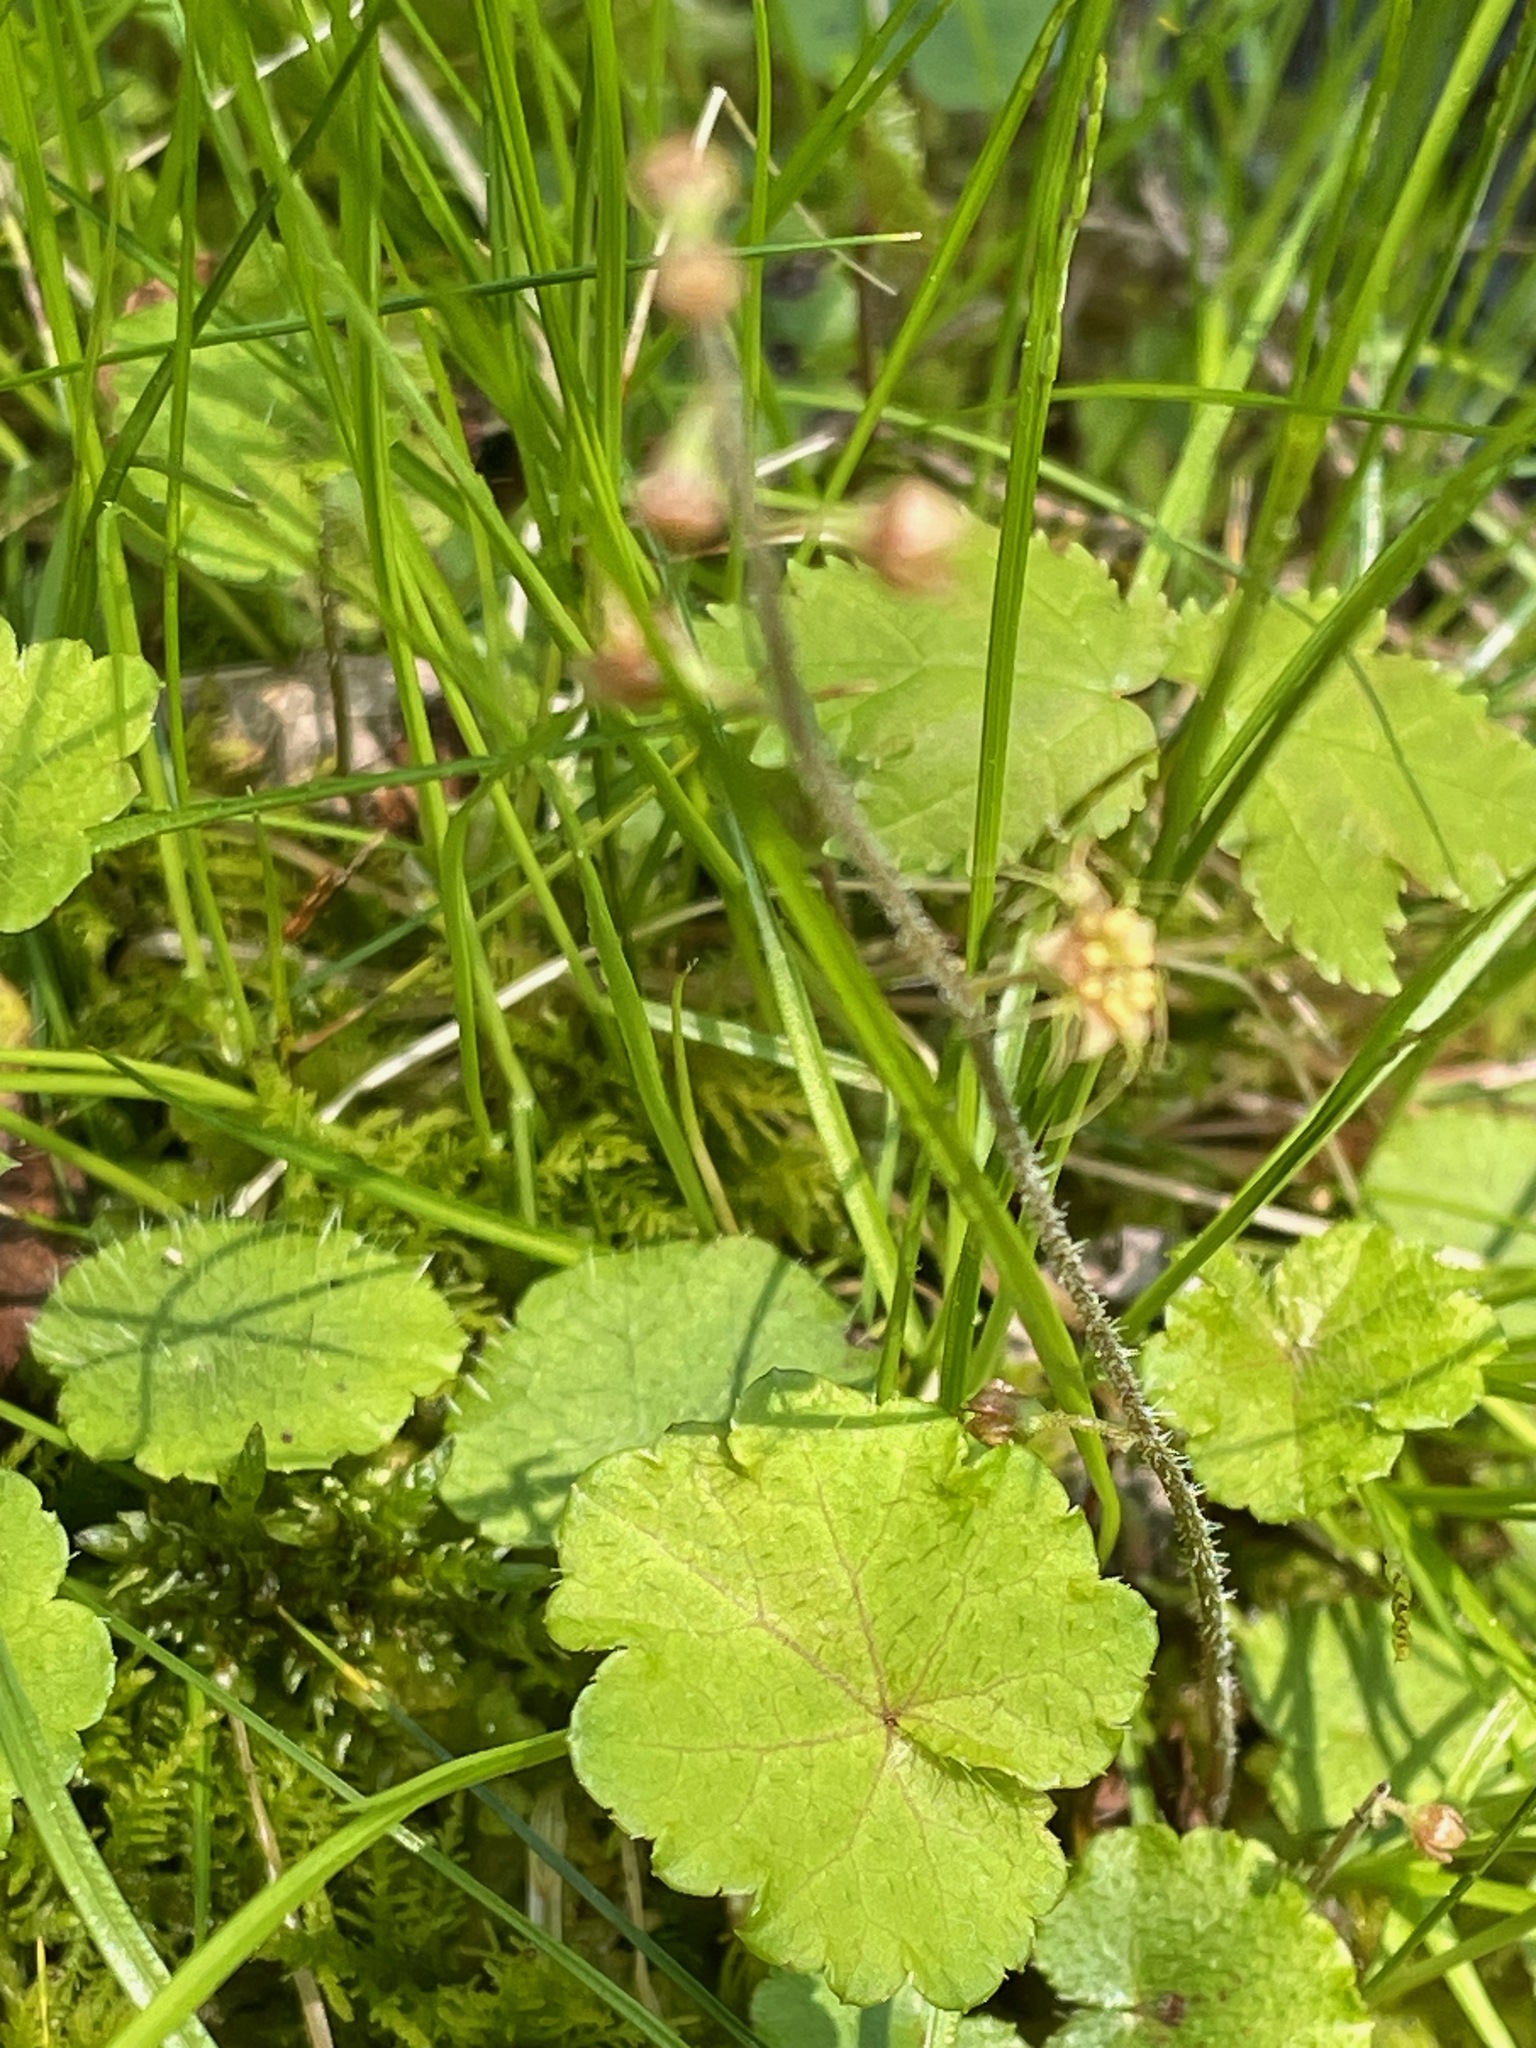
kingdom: Plantae
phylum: Tracheophyta
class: Magnoliopsida
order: Saxifragales
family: Saxifragaceae
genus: Mitella
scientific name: Mitella nuda
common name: Bare-stemmed bishop's-cap
